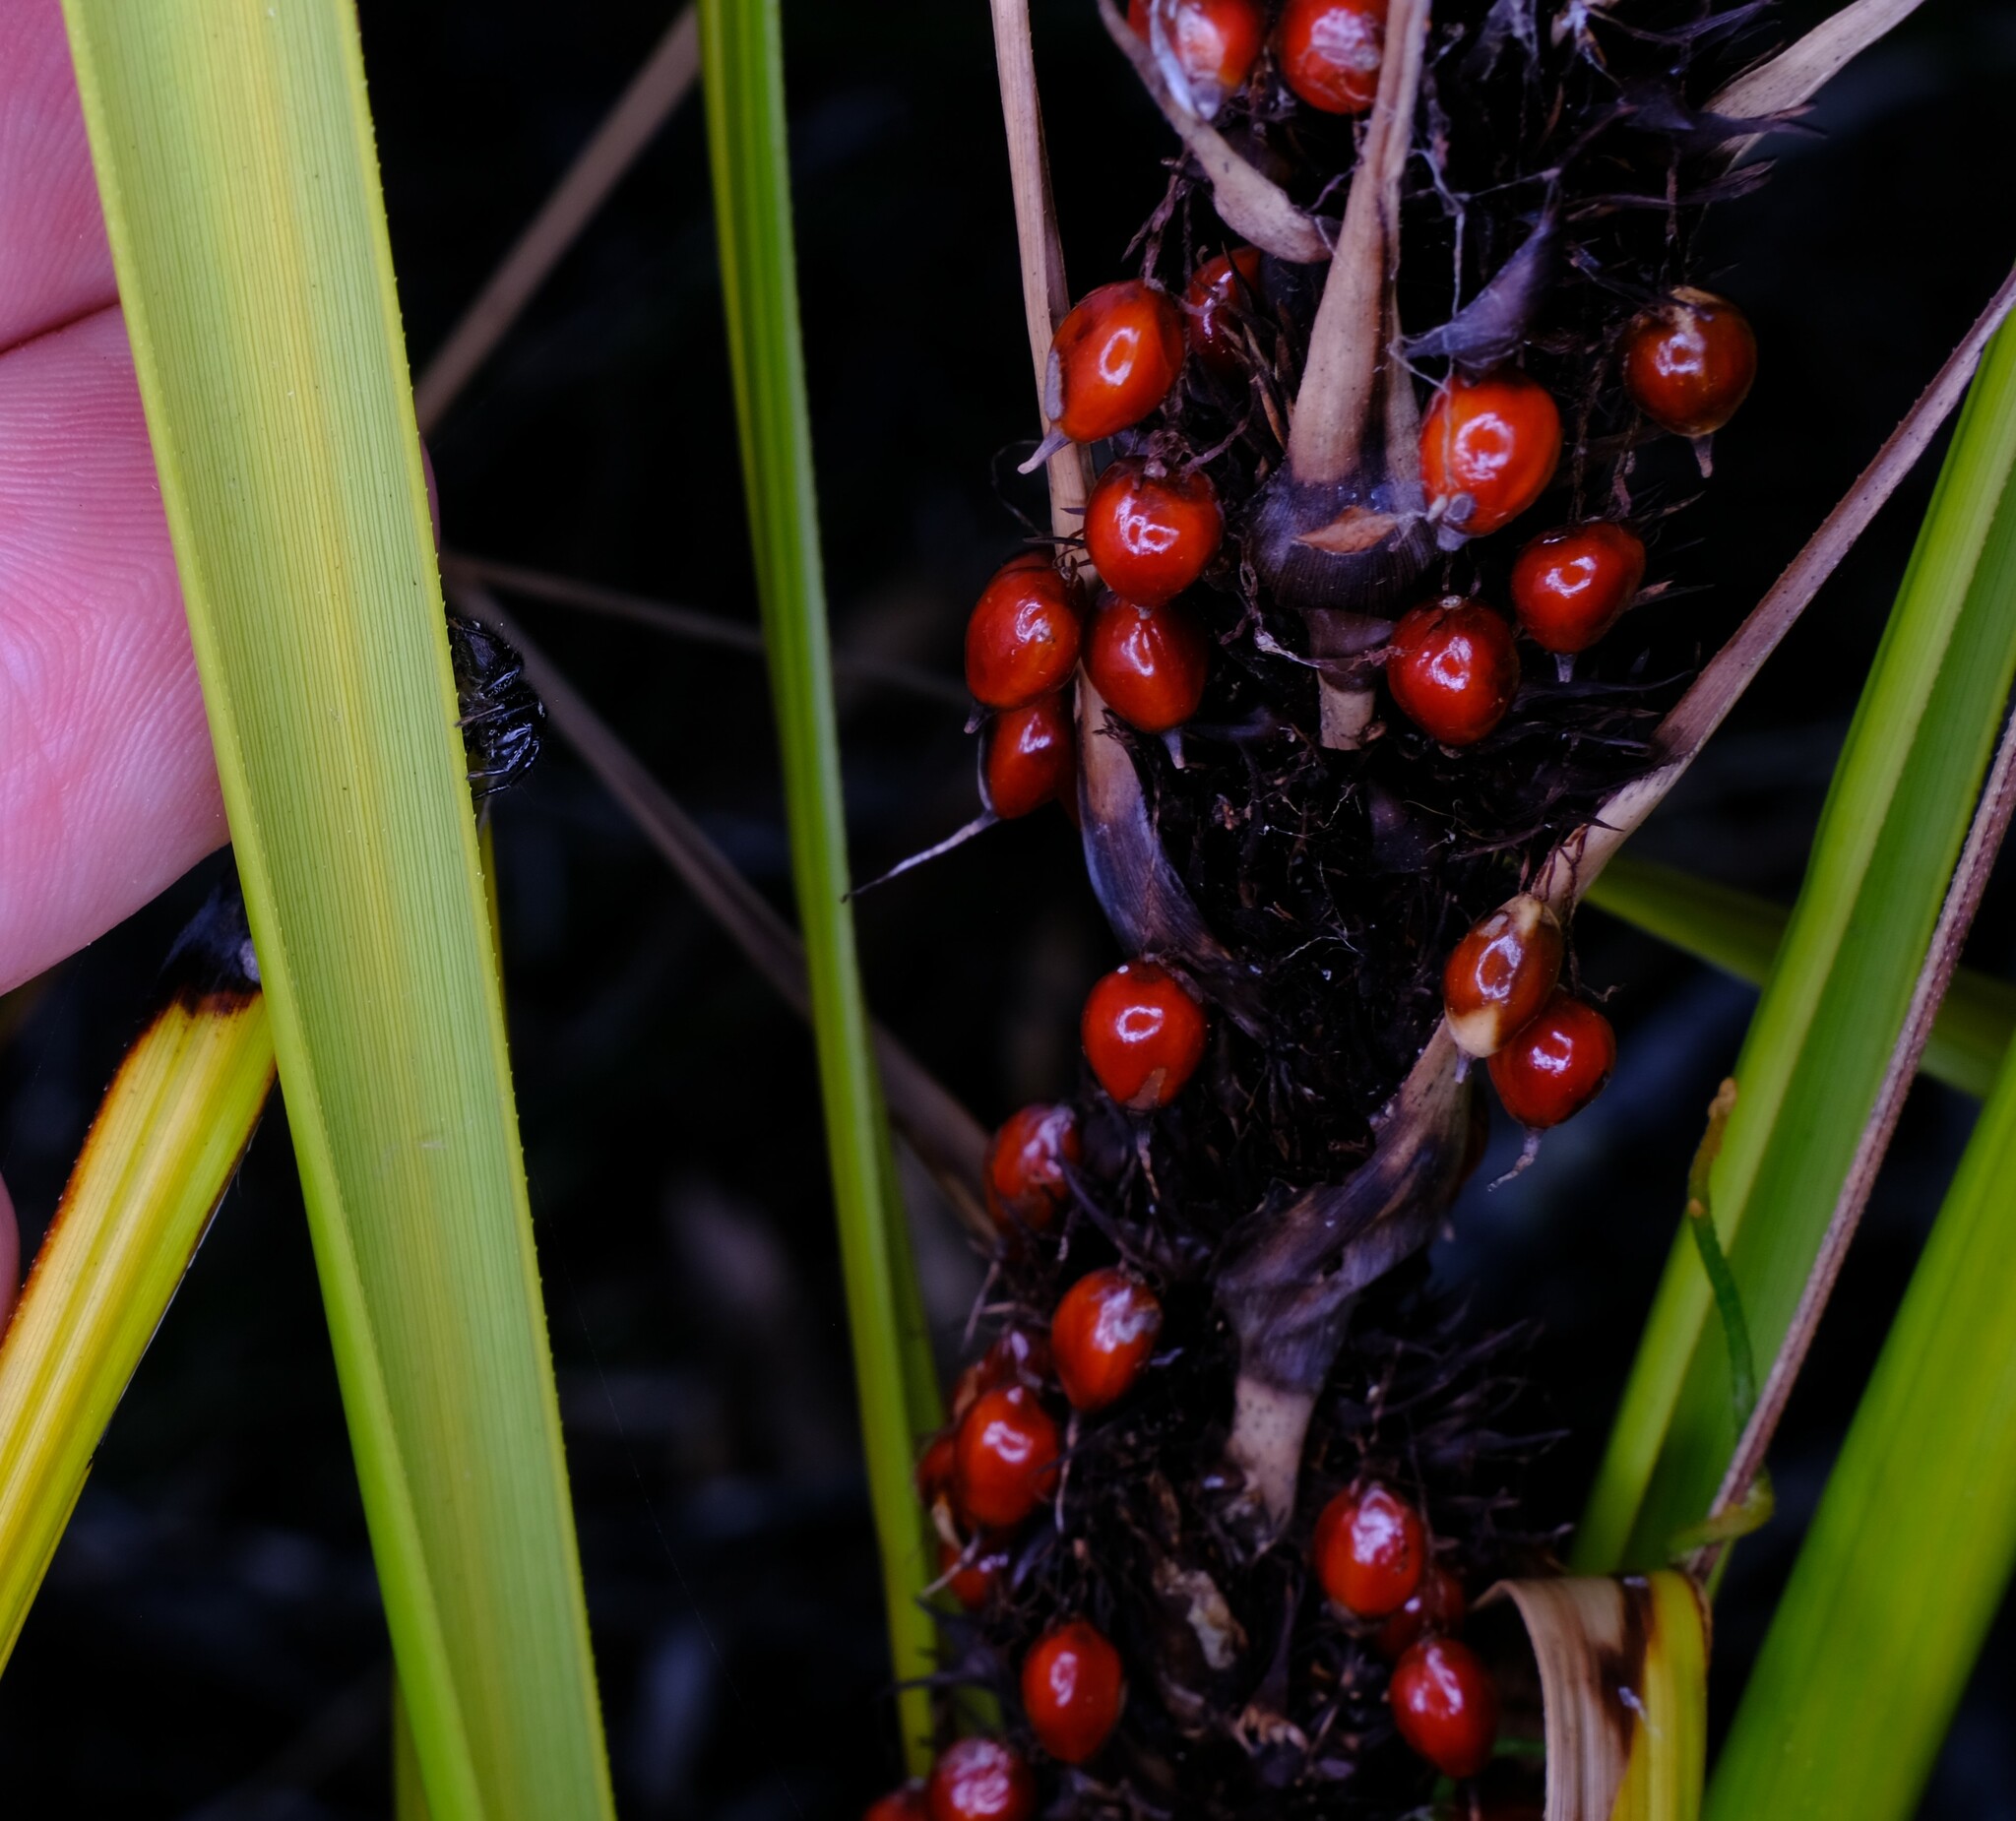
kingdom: Plantae
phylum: Tracheophyta
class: Liliopsida
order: Poales
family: Cyperaceae
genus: Gahnia
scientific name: Gahnia aspera
